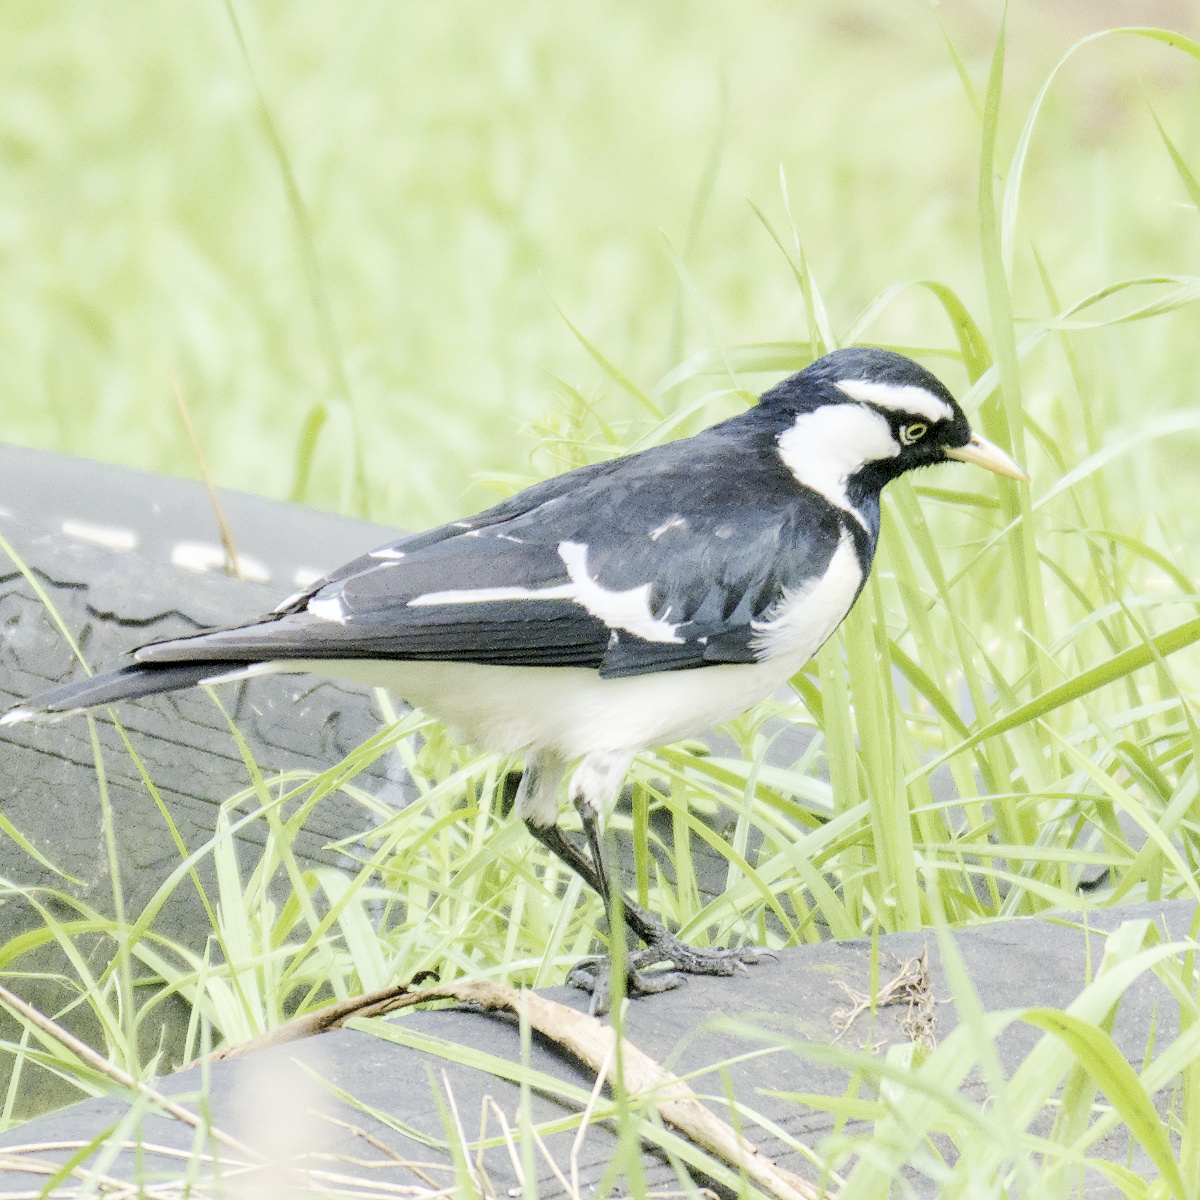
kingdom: Animalia
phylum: Chordata
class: Aves
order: Passeriformes
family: Monarchidae
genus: Grallina
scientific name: Grallina cyanoleuca
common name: Magpie-lark
